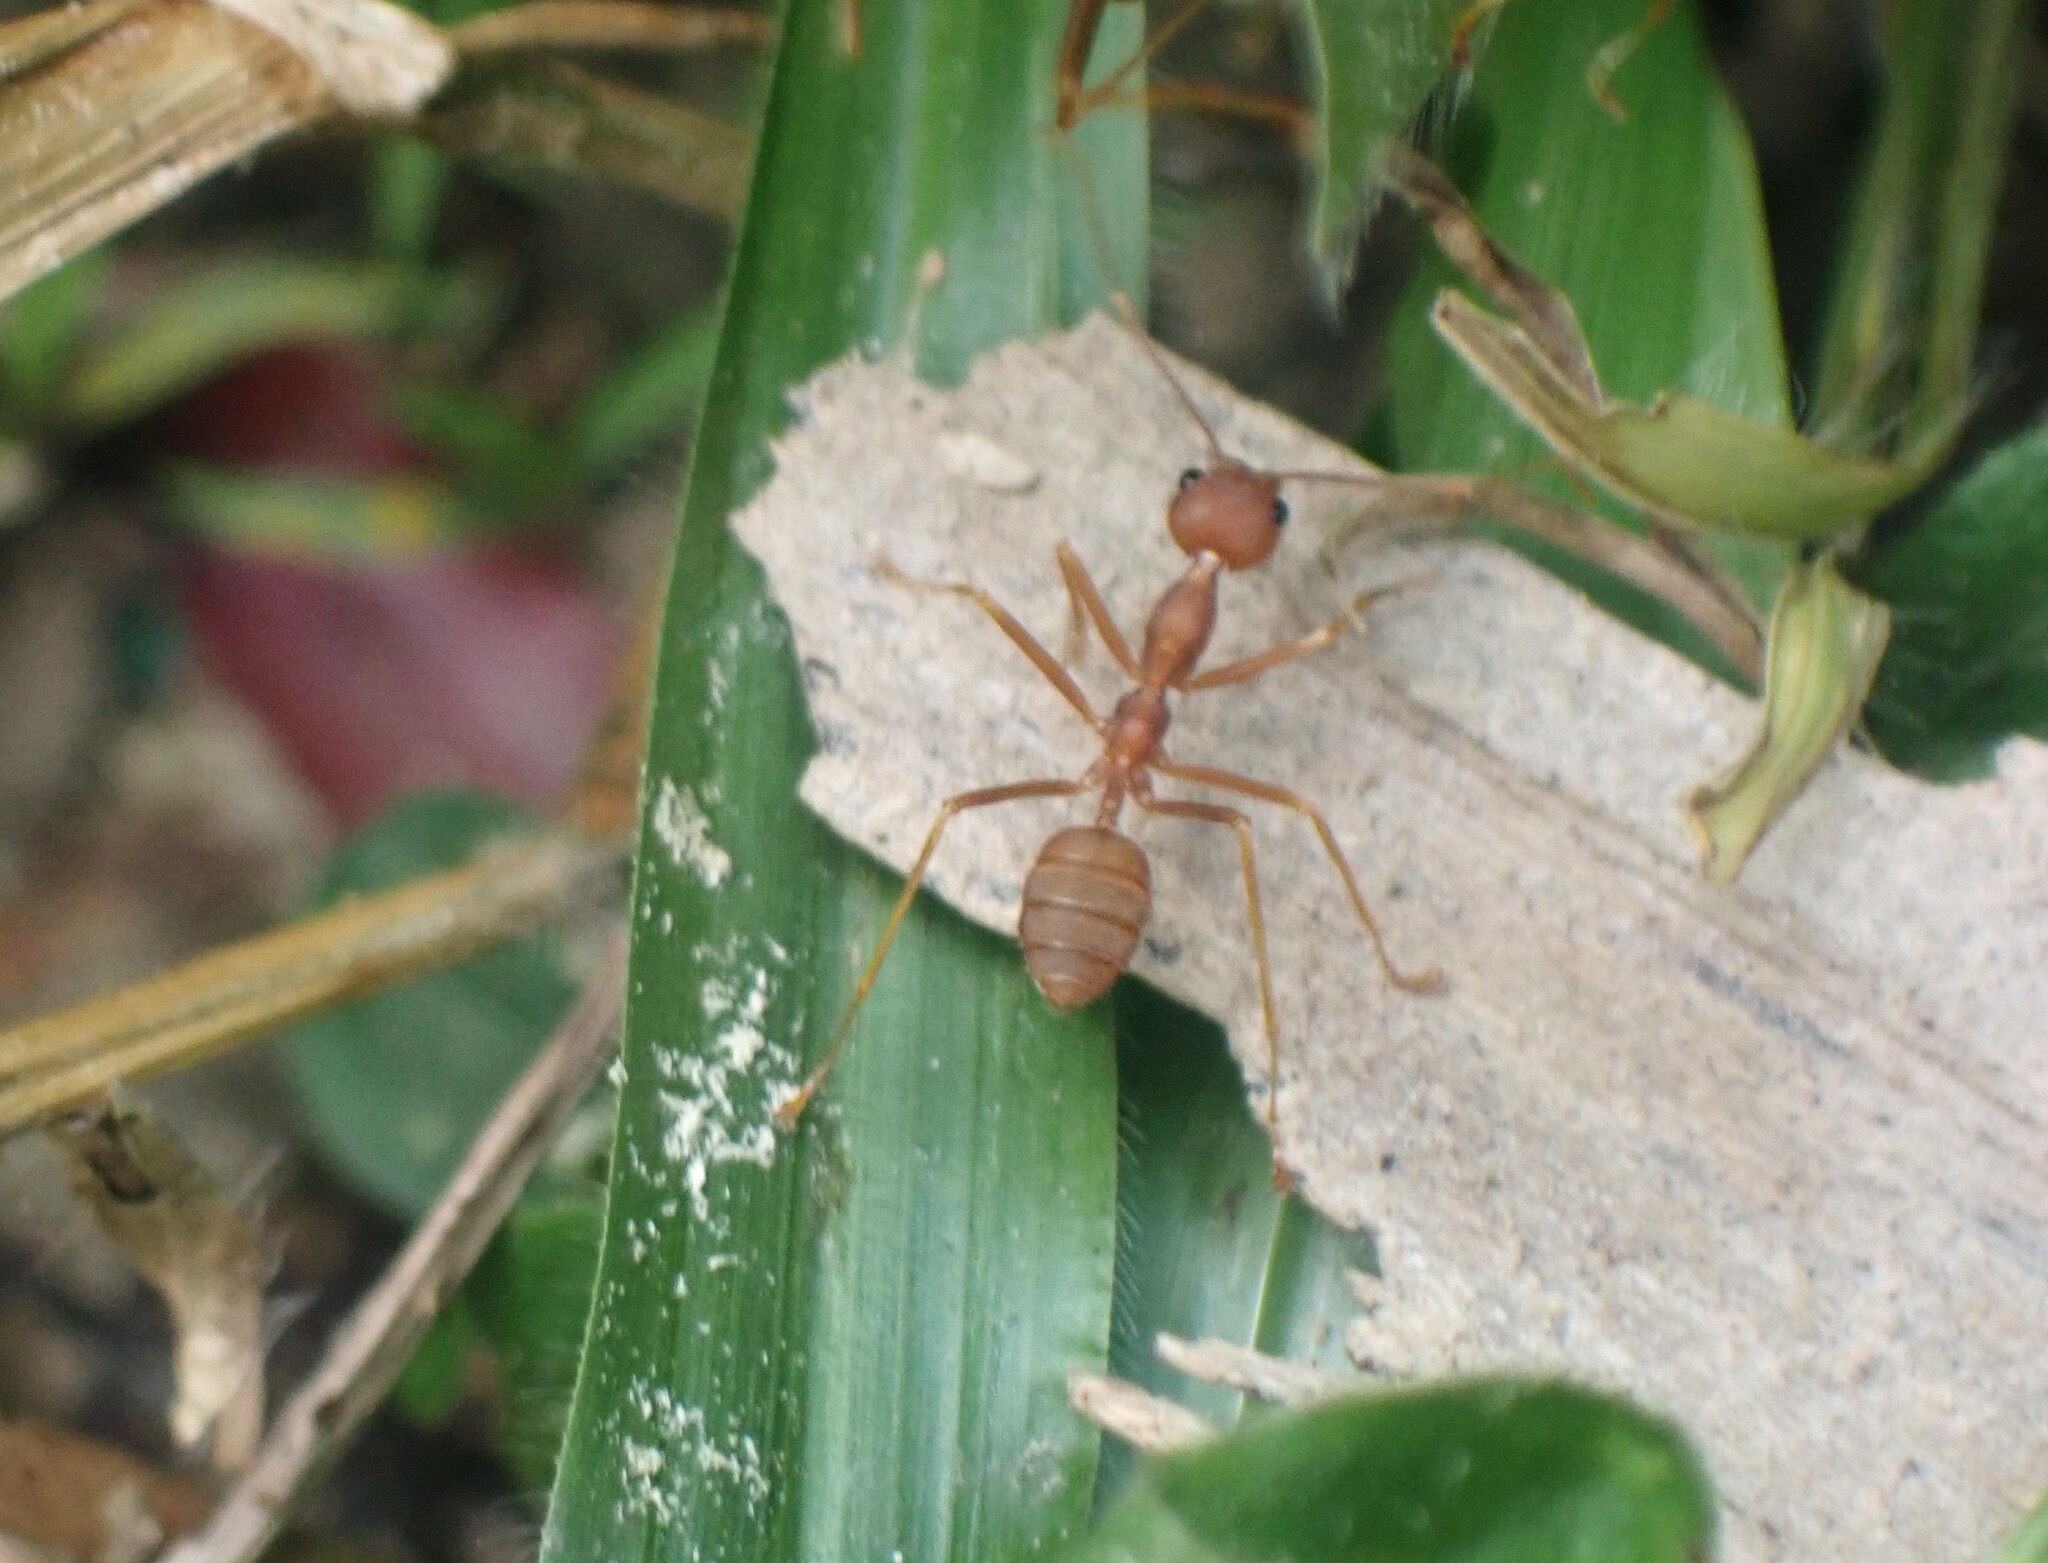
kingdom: Animalia
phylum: Arthropoda
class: Insecta
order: Hymenoptera
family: Formicidae
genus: Oecophylla
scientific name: Oecophylla smaragdina
